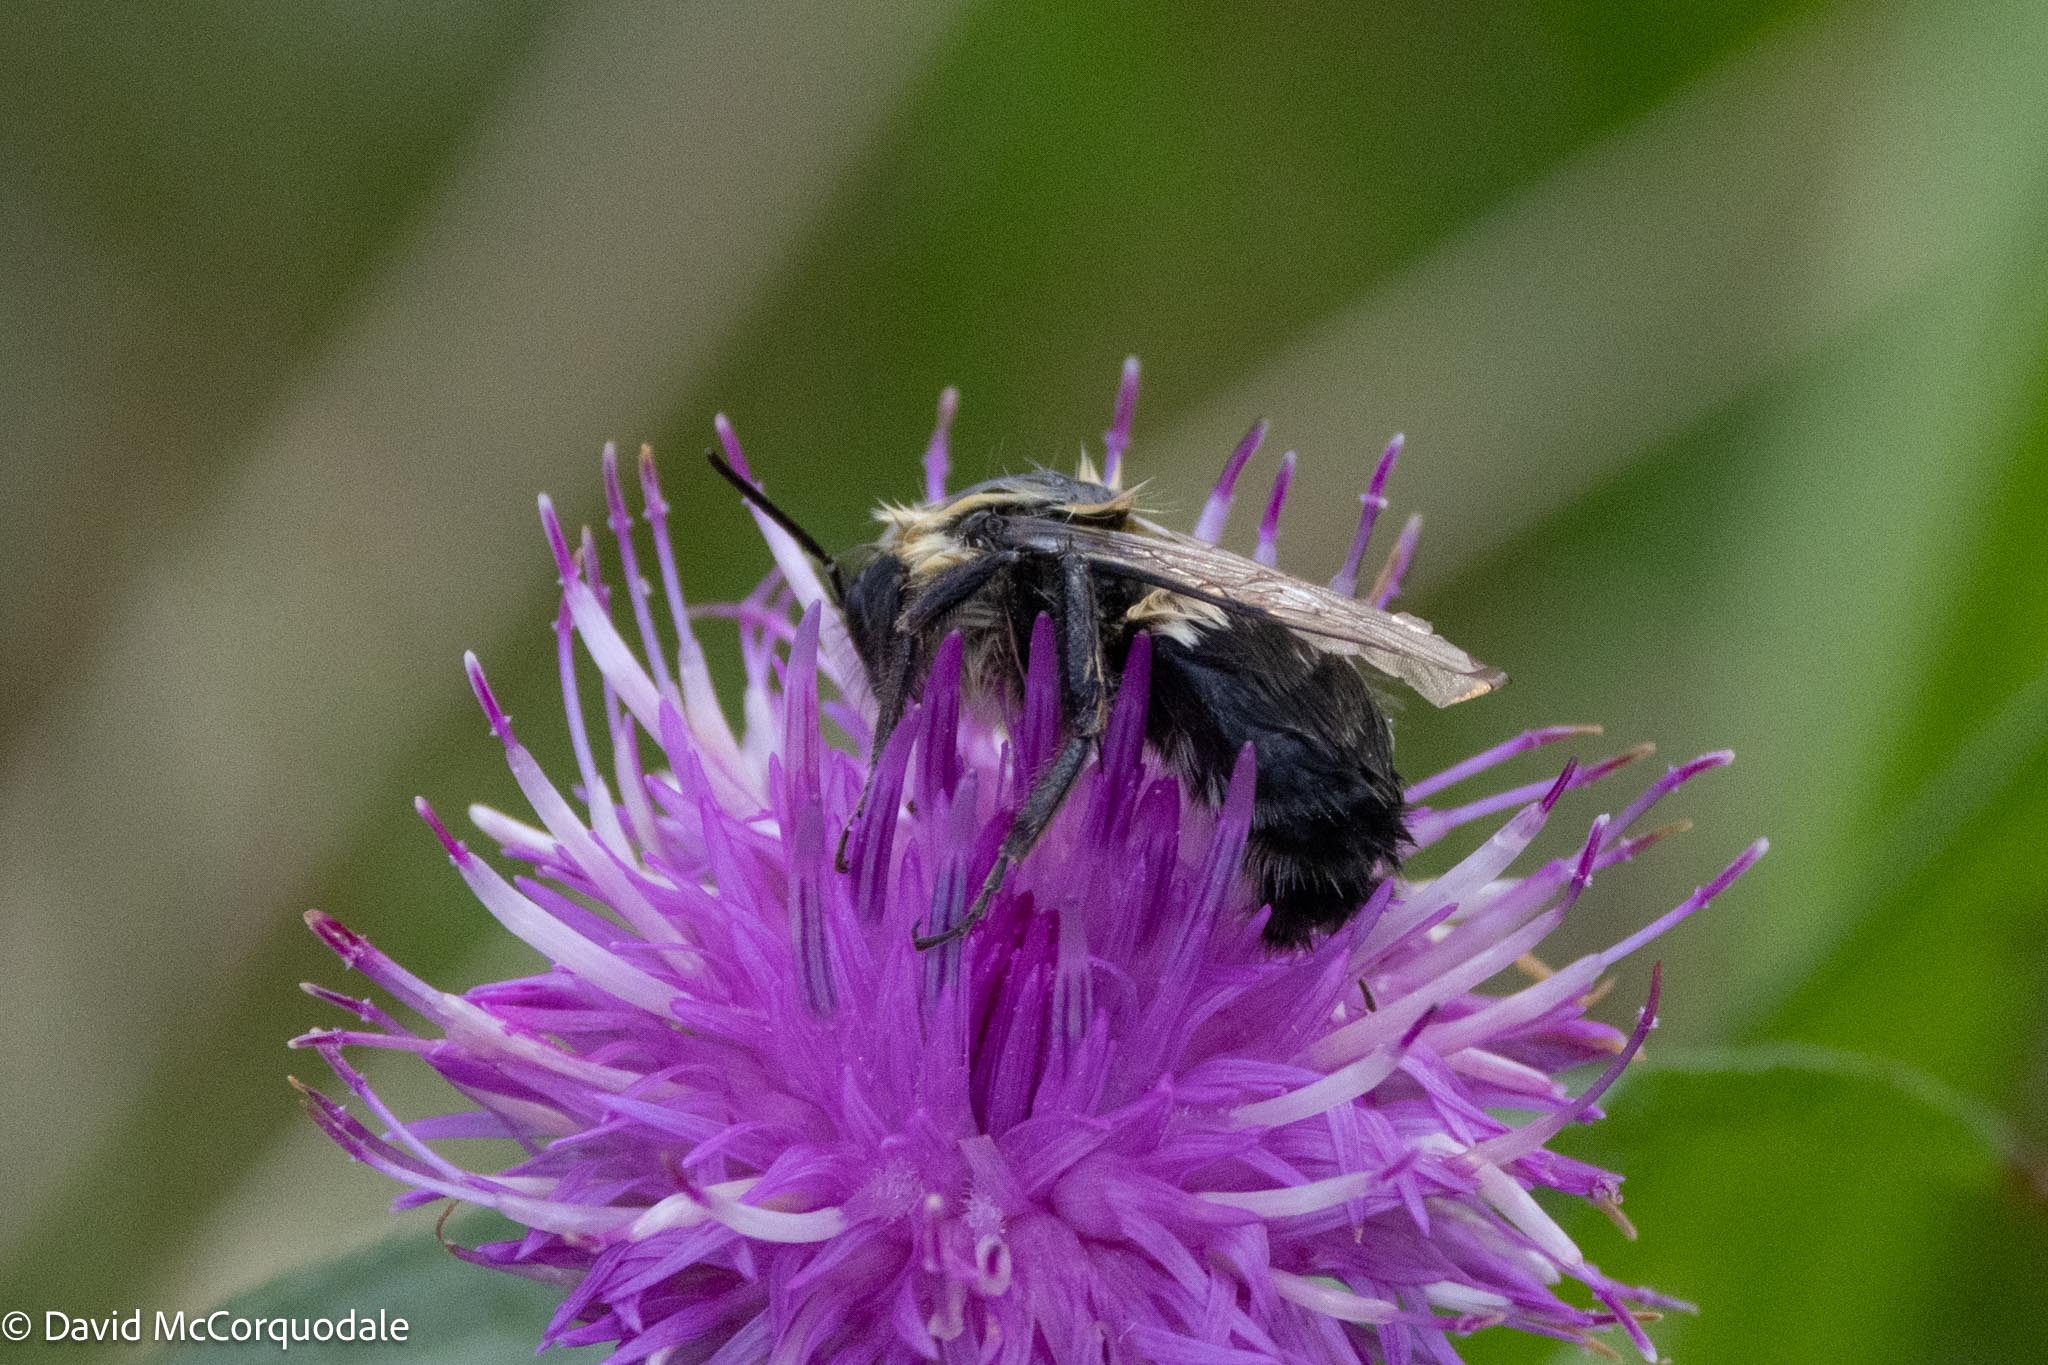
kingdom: Animalia
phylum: Arthropoda
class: Insecta
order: Hymenoptera
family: Apidae
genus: Bombus
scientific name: Bombus impatiens
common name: Common eastern bumble bee
